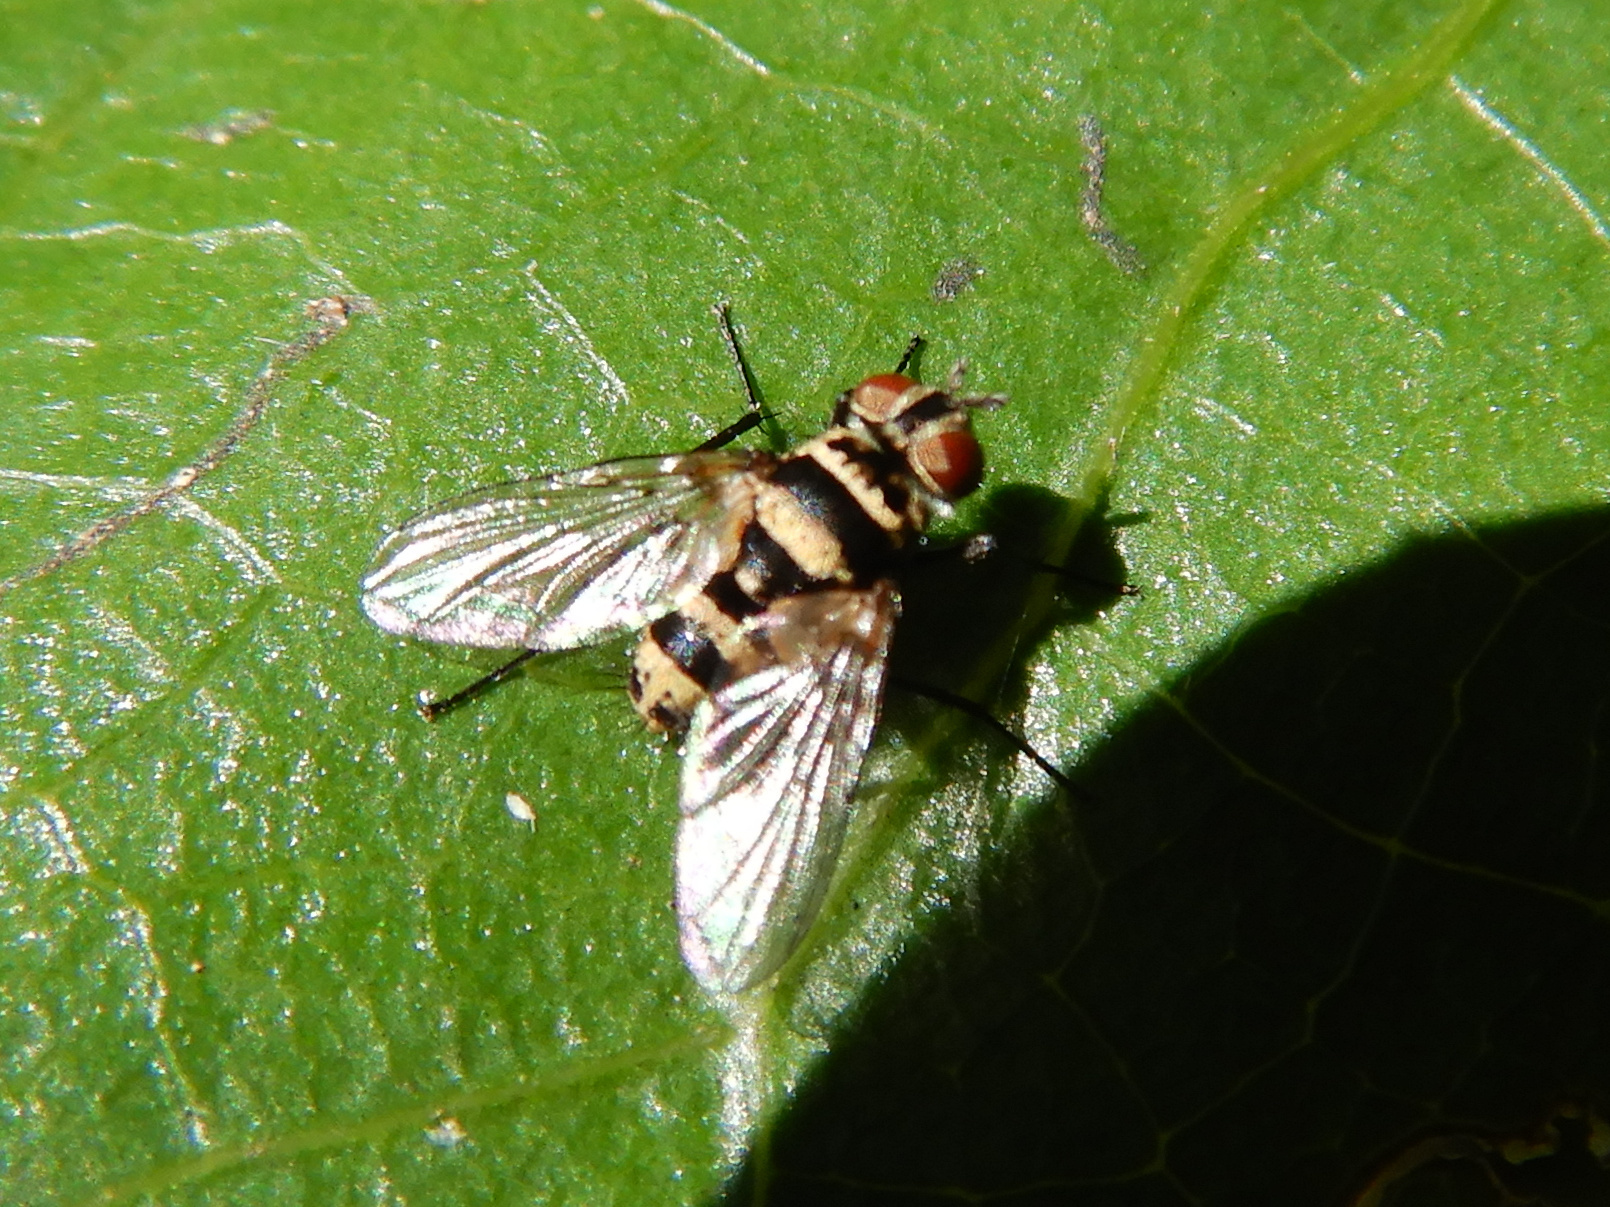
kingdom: Animalia
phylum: Arthropoda
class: Insecta
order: Diptera
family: Tachinidae
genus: Trigonospila
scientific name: Trigonospila brevifacies
